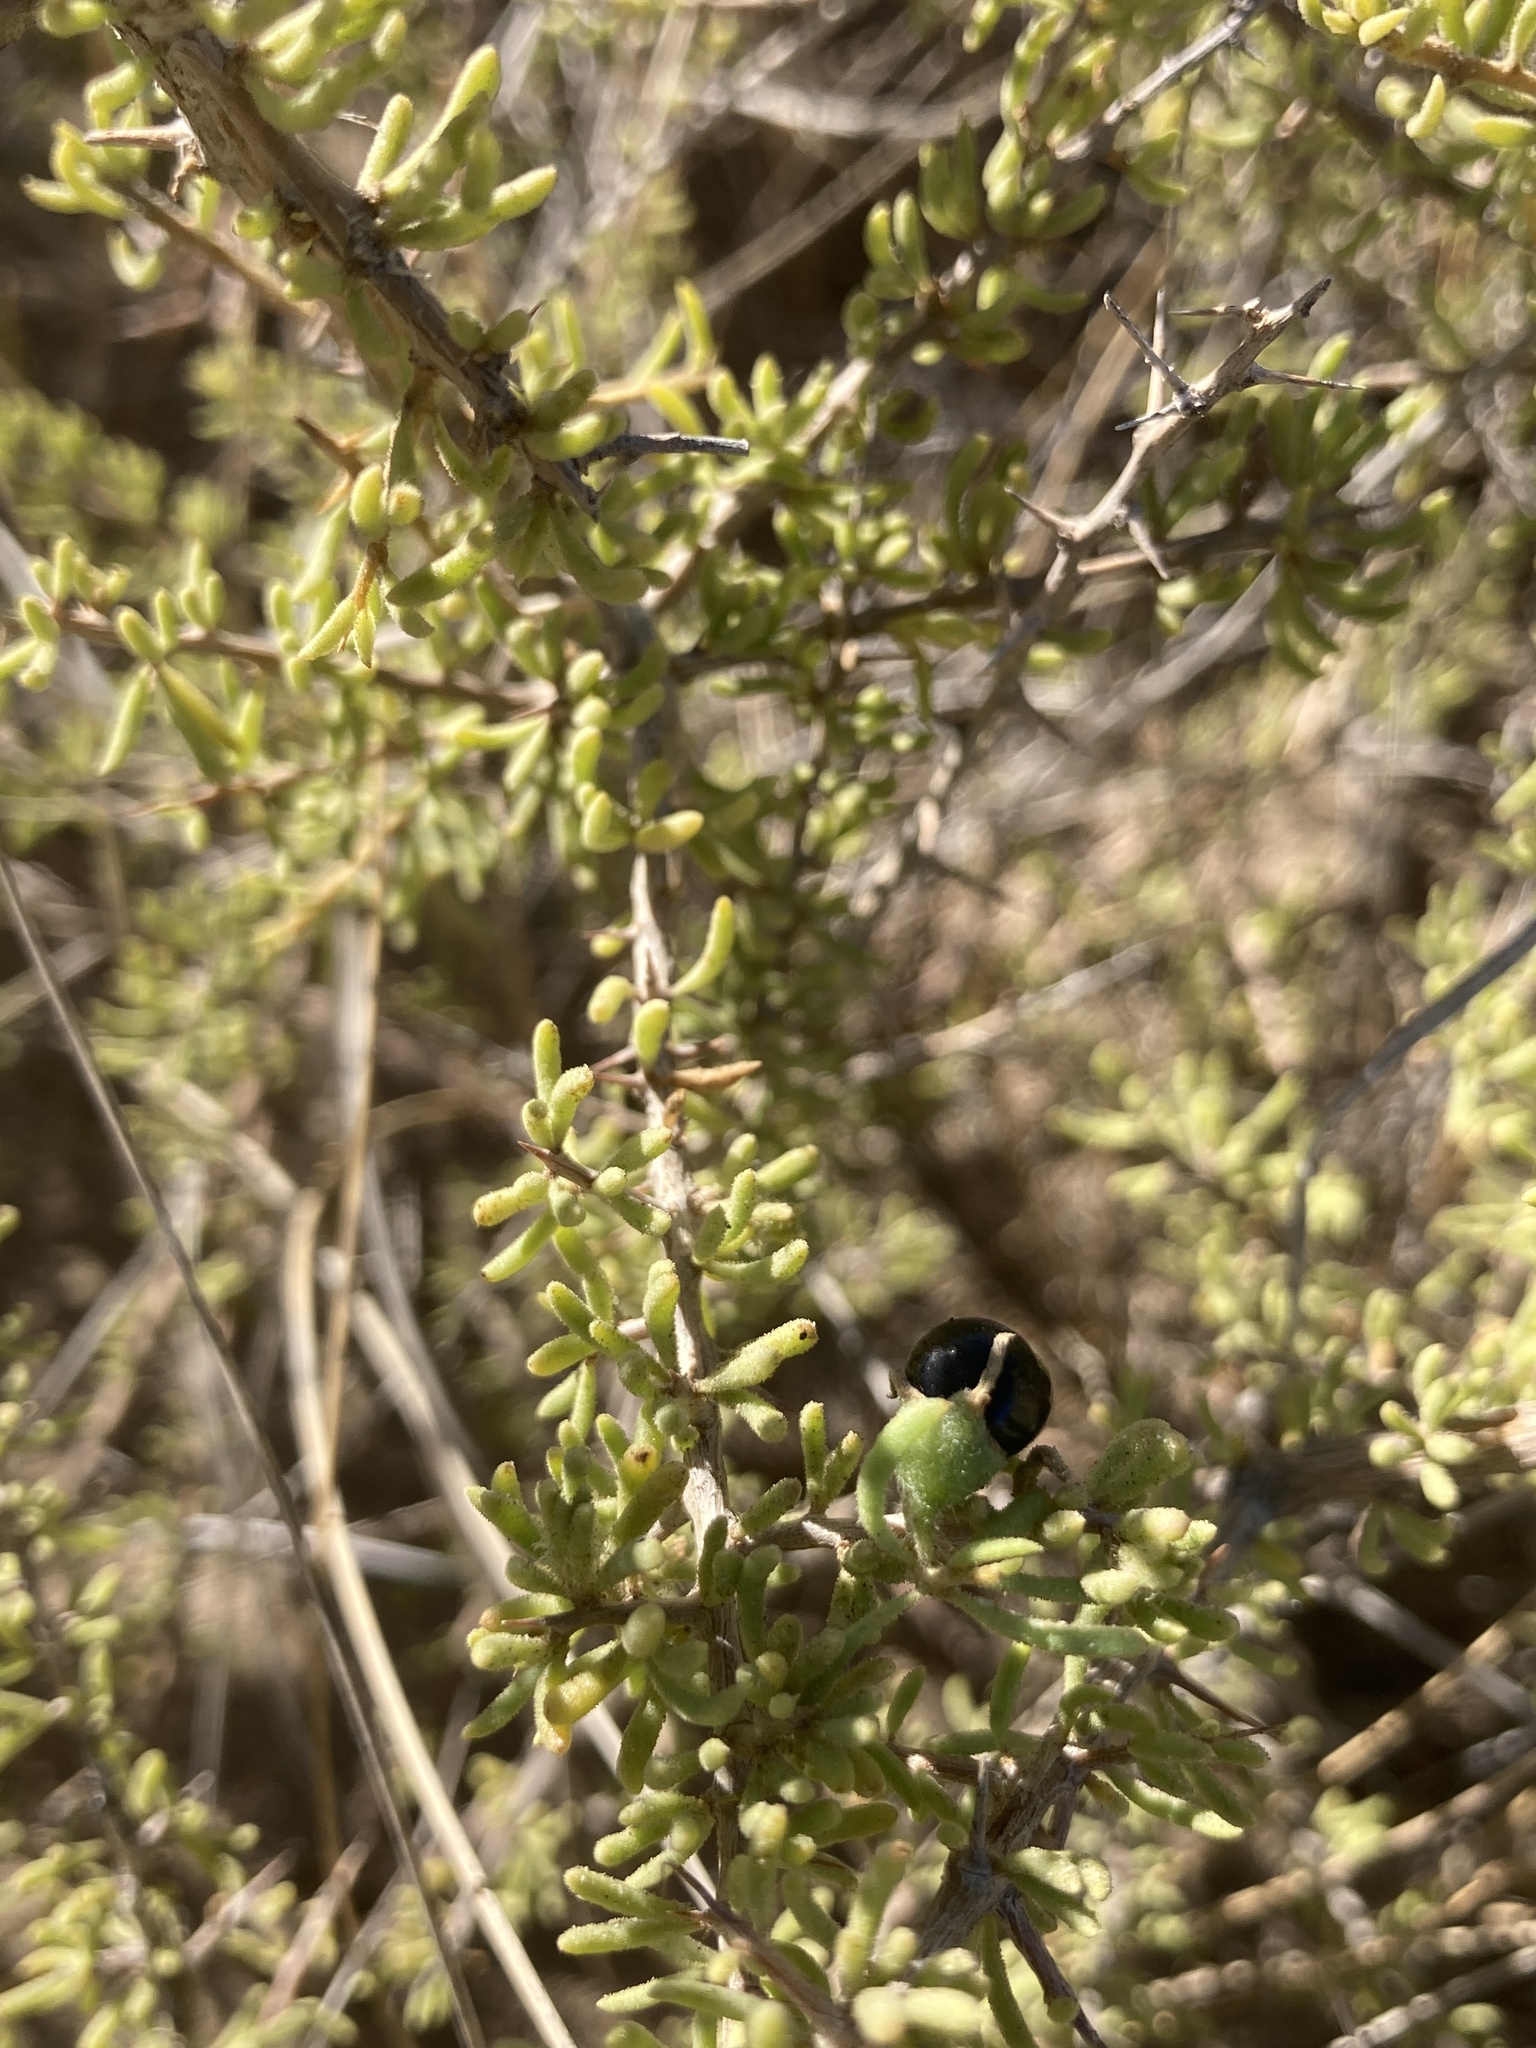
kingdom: Plantae
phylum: Tracheophyta
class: Magnoliopsida
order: Solanales
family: Solanaceae
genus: Lycium
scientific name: Lycium infaustum
